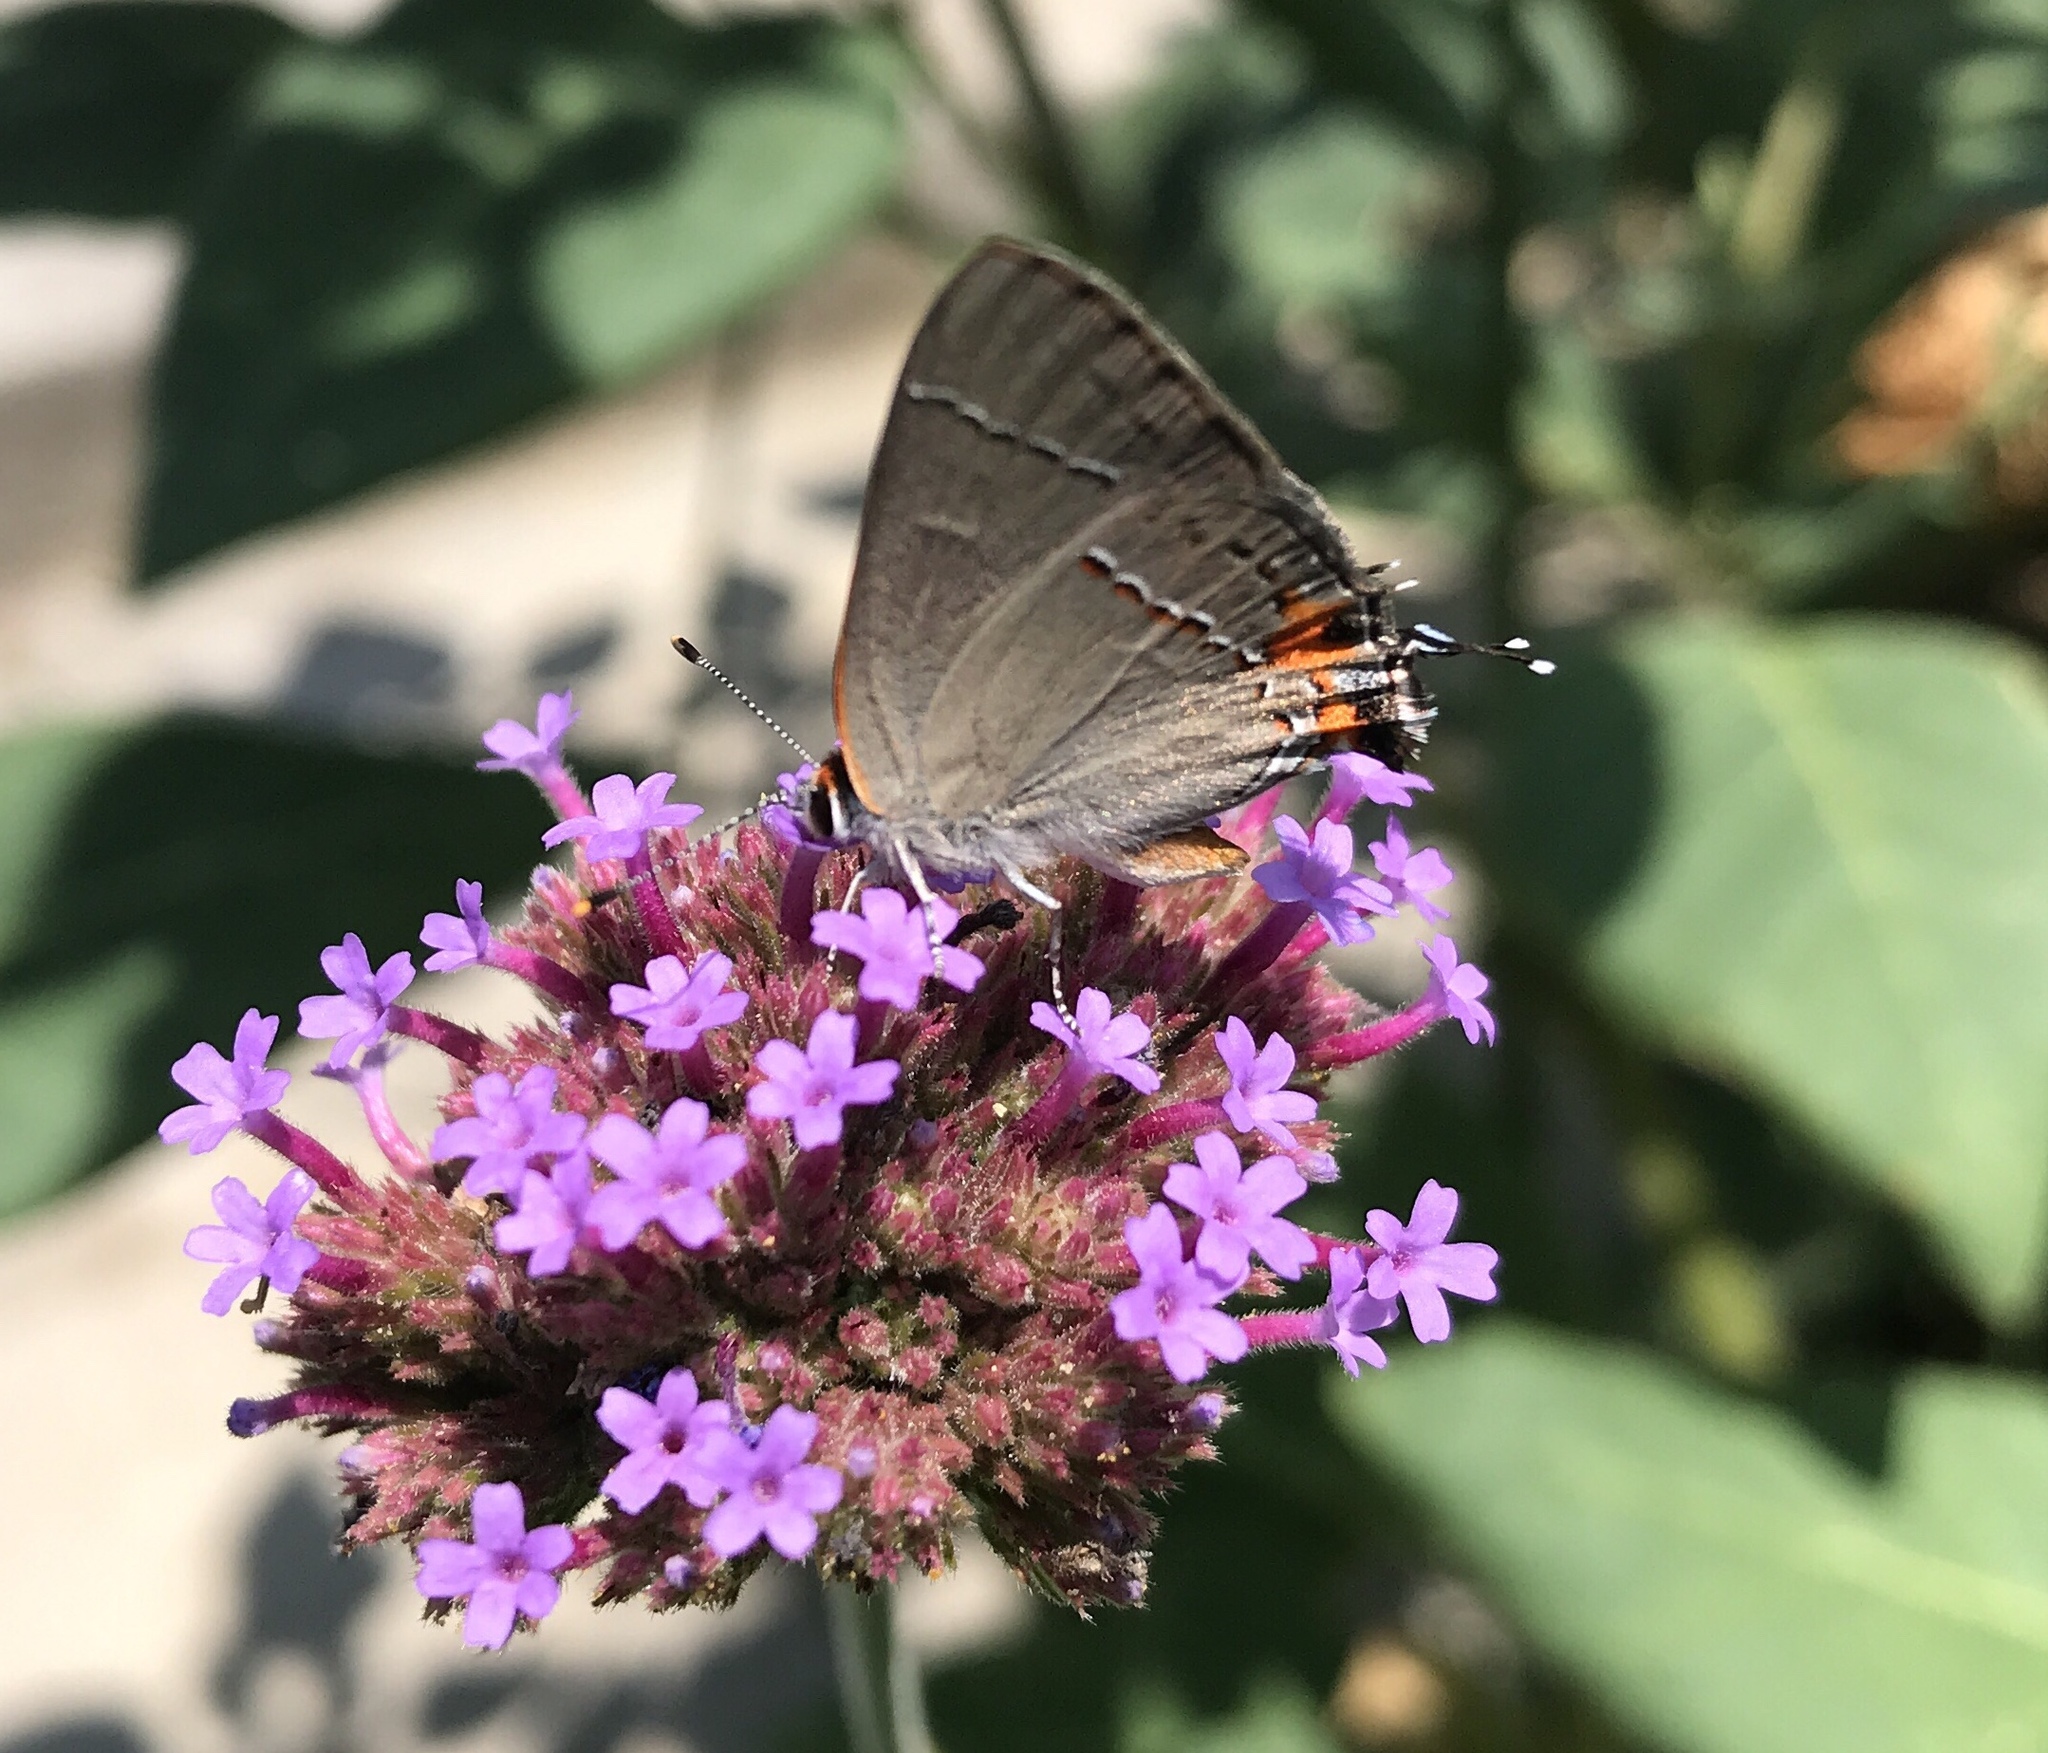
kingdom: Animalia
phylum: Arthropoda
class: Insecta
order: Lepidoptera
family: Lycaenidae
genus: Strymon
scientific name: Strymon melinus
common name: Gray hairstreak
